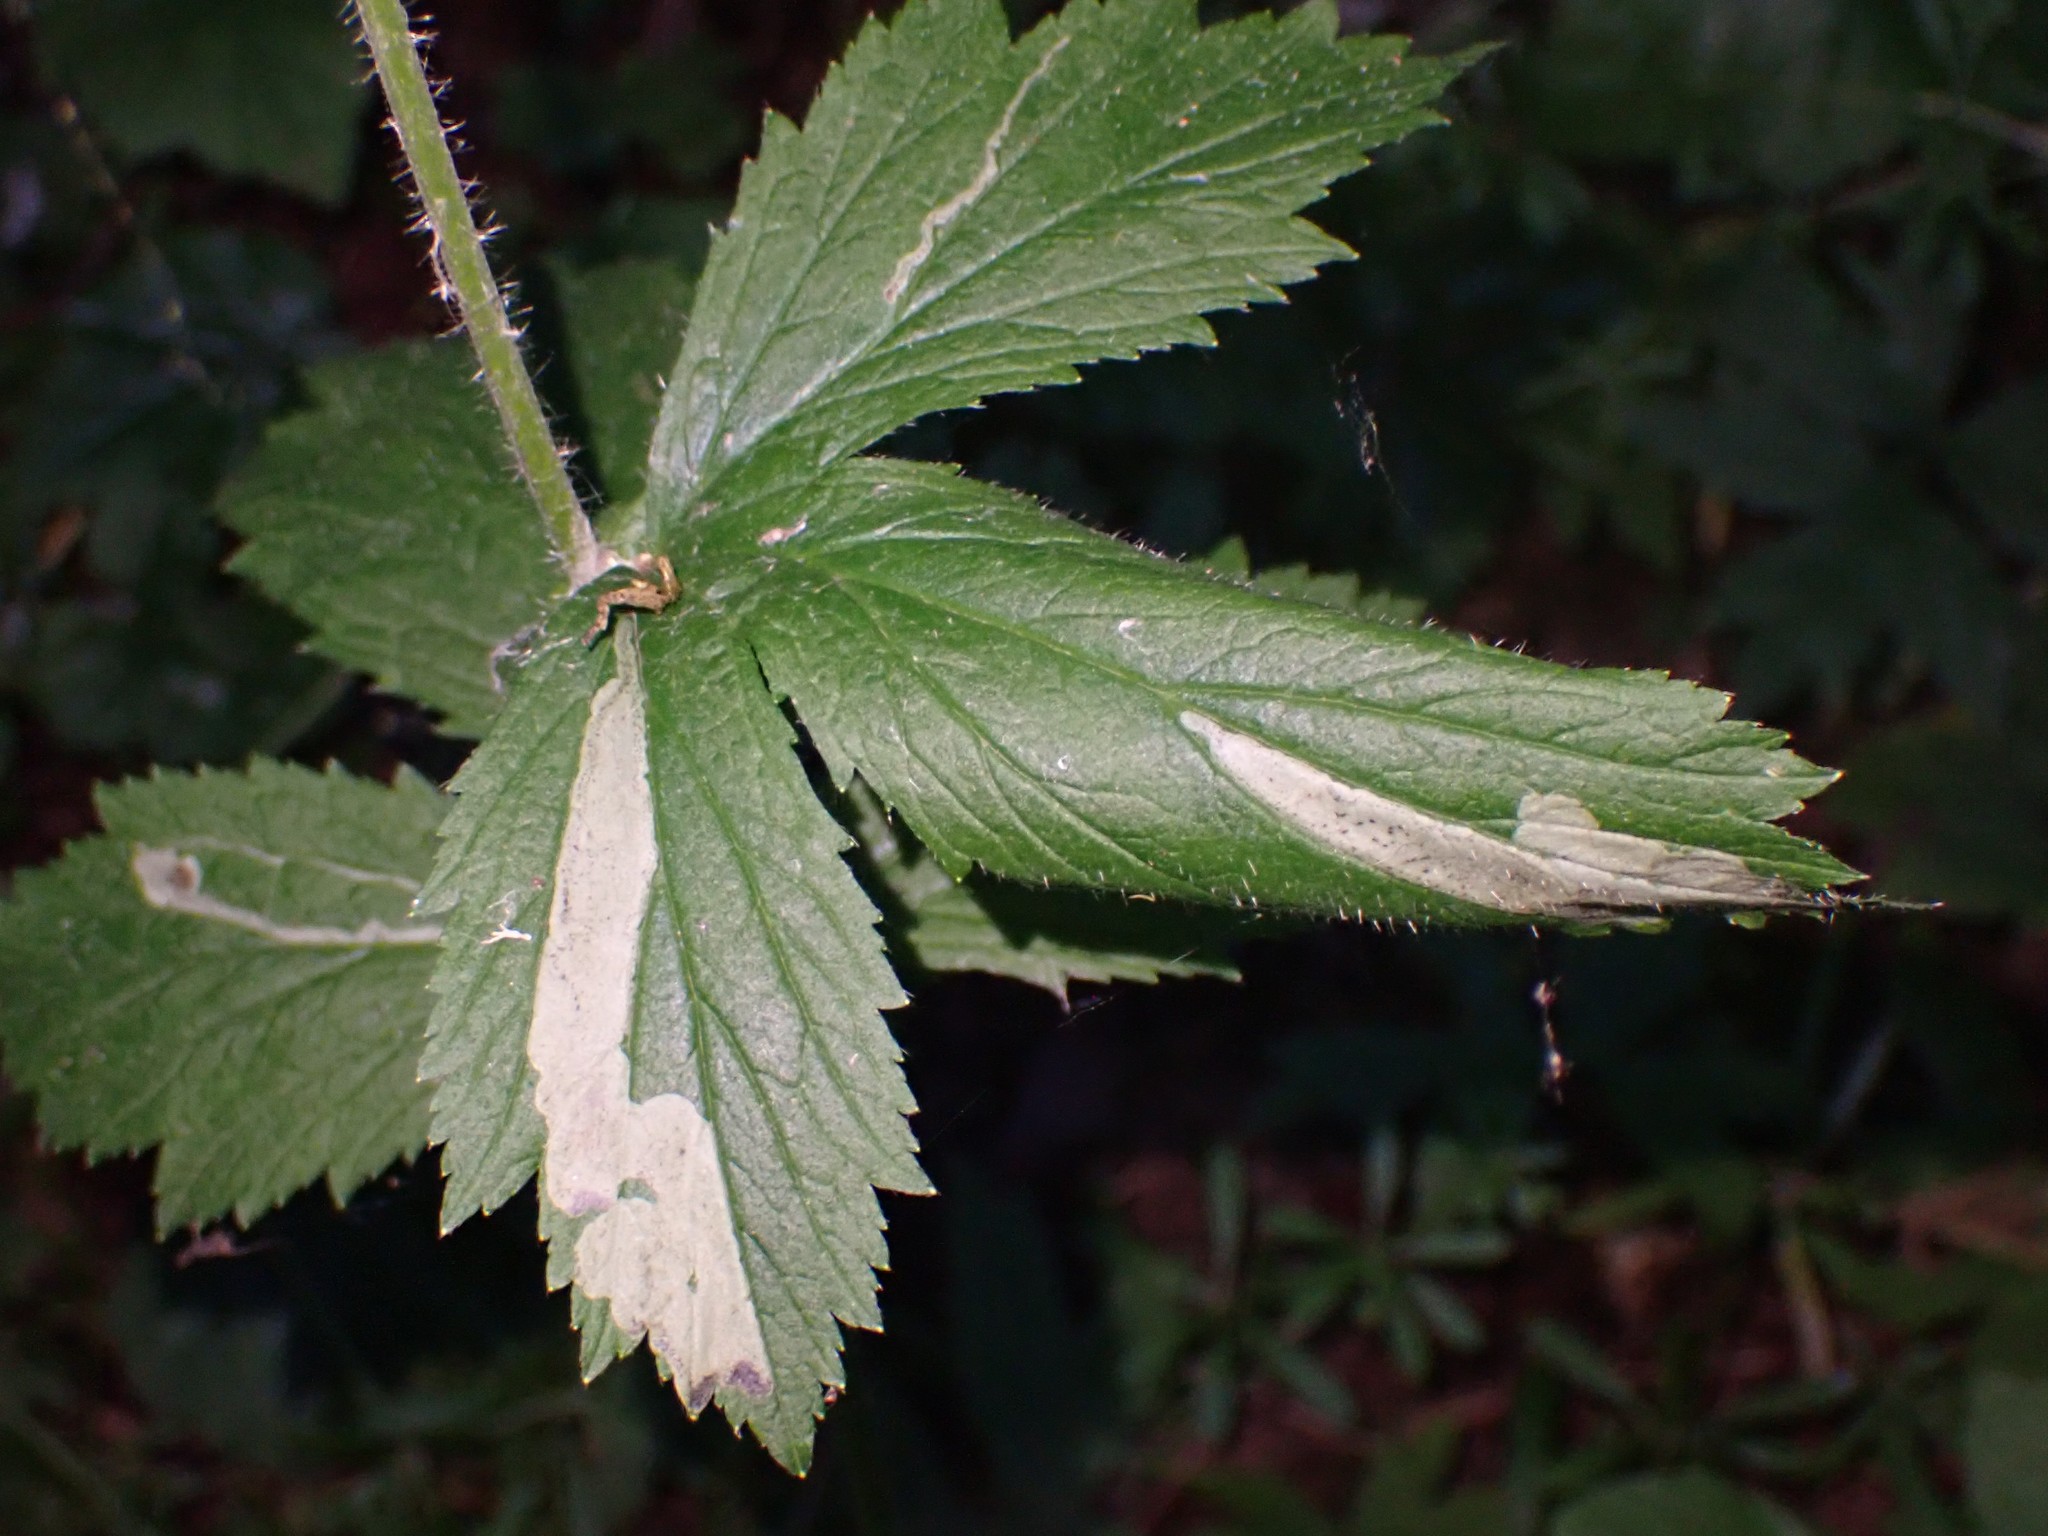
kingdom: Animalia
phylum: Arthropoda
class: Insecta
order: Diptera
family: Agromyzidae
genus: Agromyza
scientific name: Agromyza idaeiana
